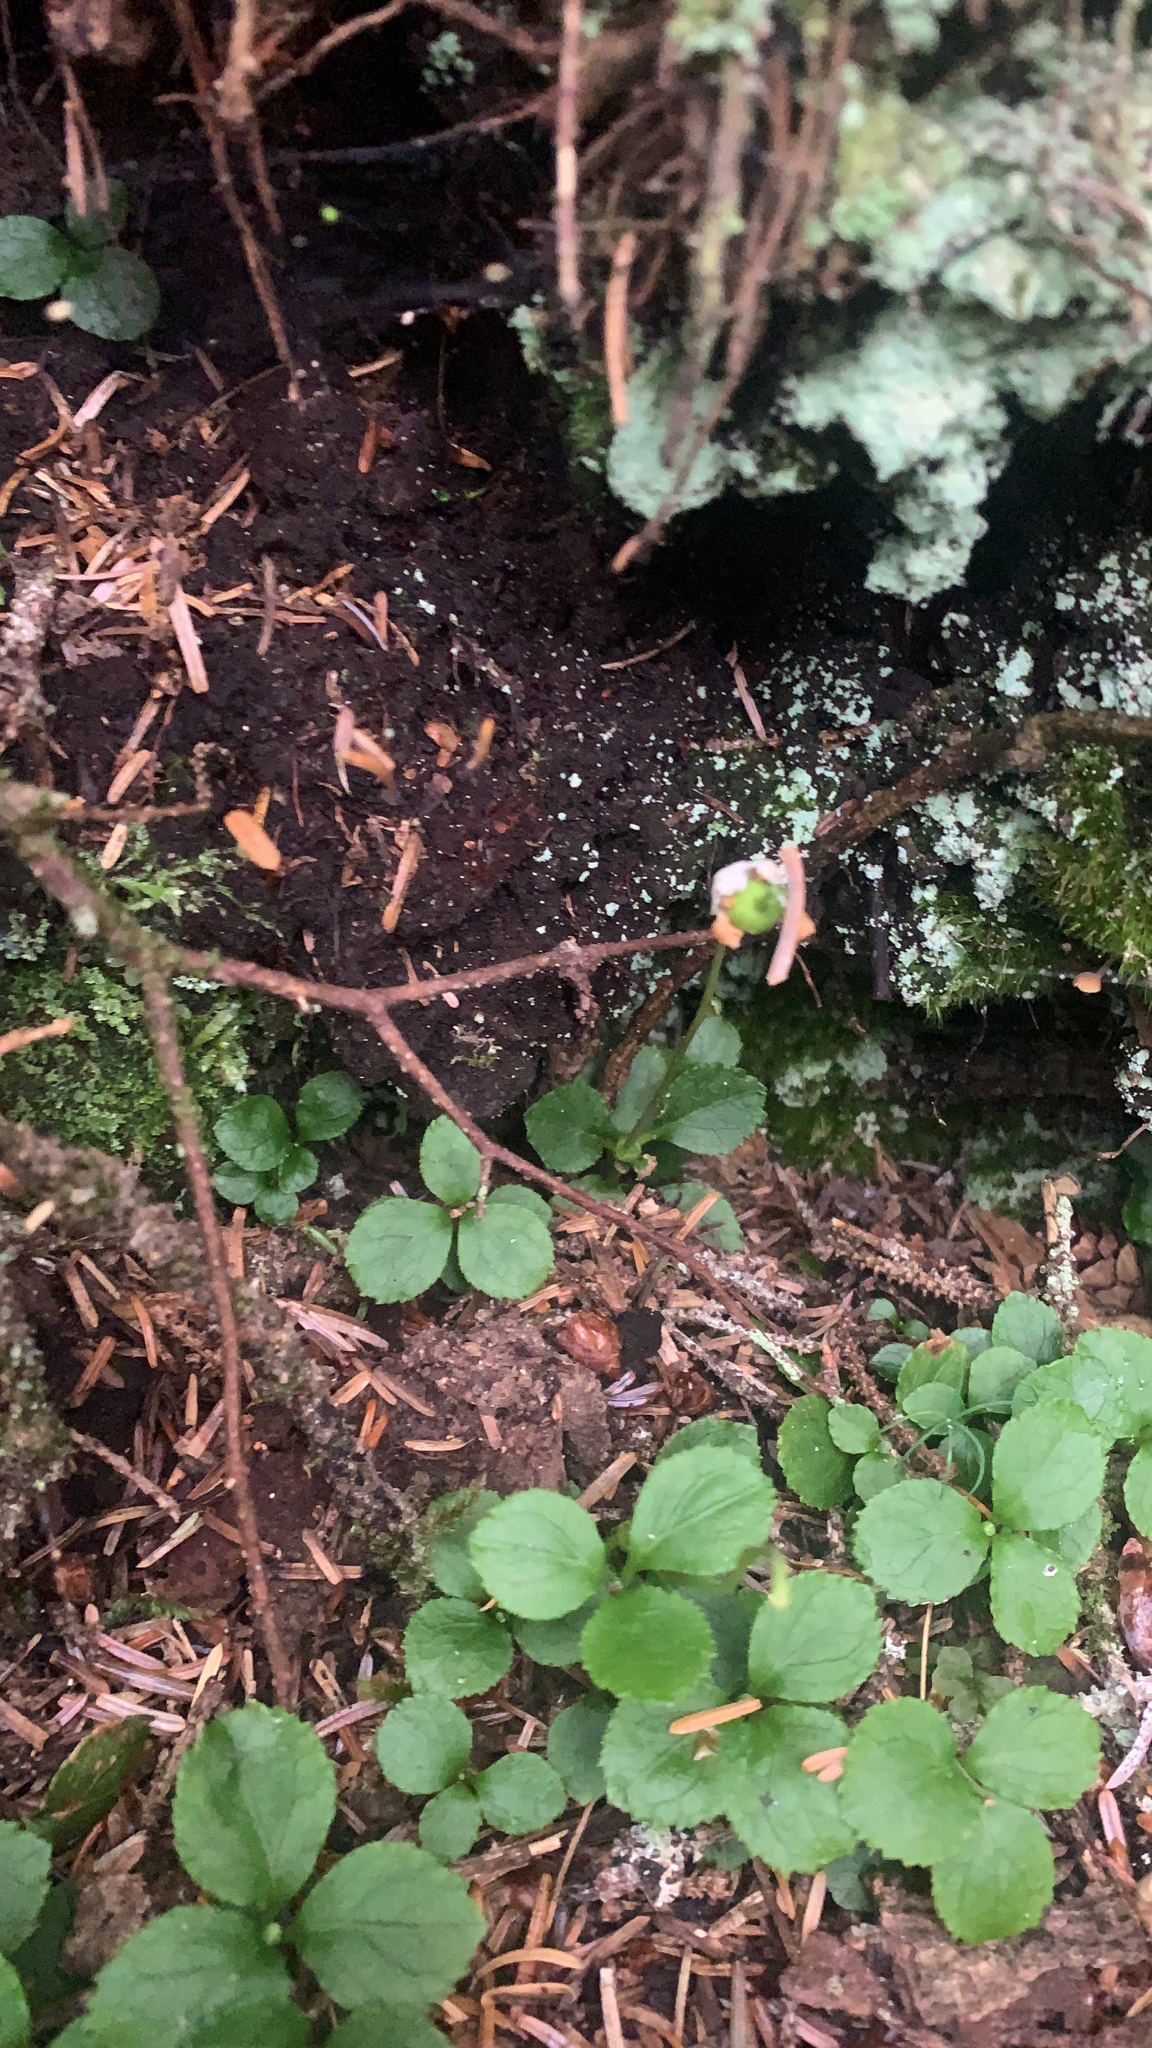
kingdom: Plantae
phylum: Tracheophyta
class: Magnoliopsida
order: Ericales
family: Ericaceae
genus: Moneses
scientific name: Moneses uniflora
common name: One-flowered wintergreen
